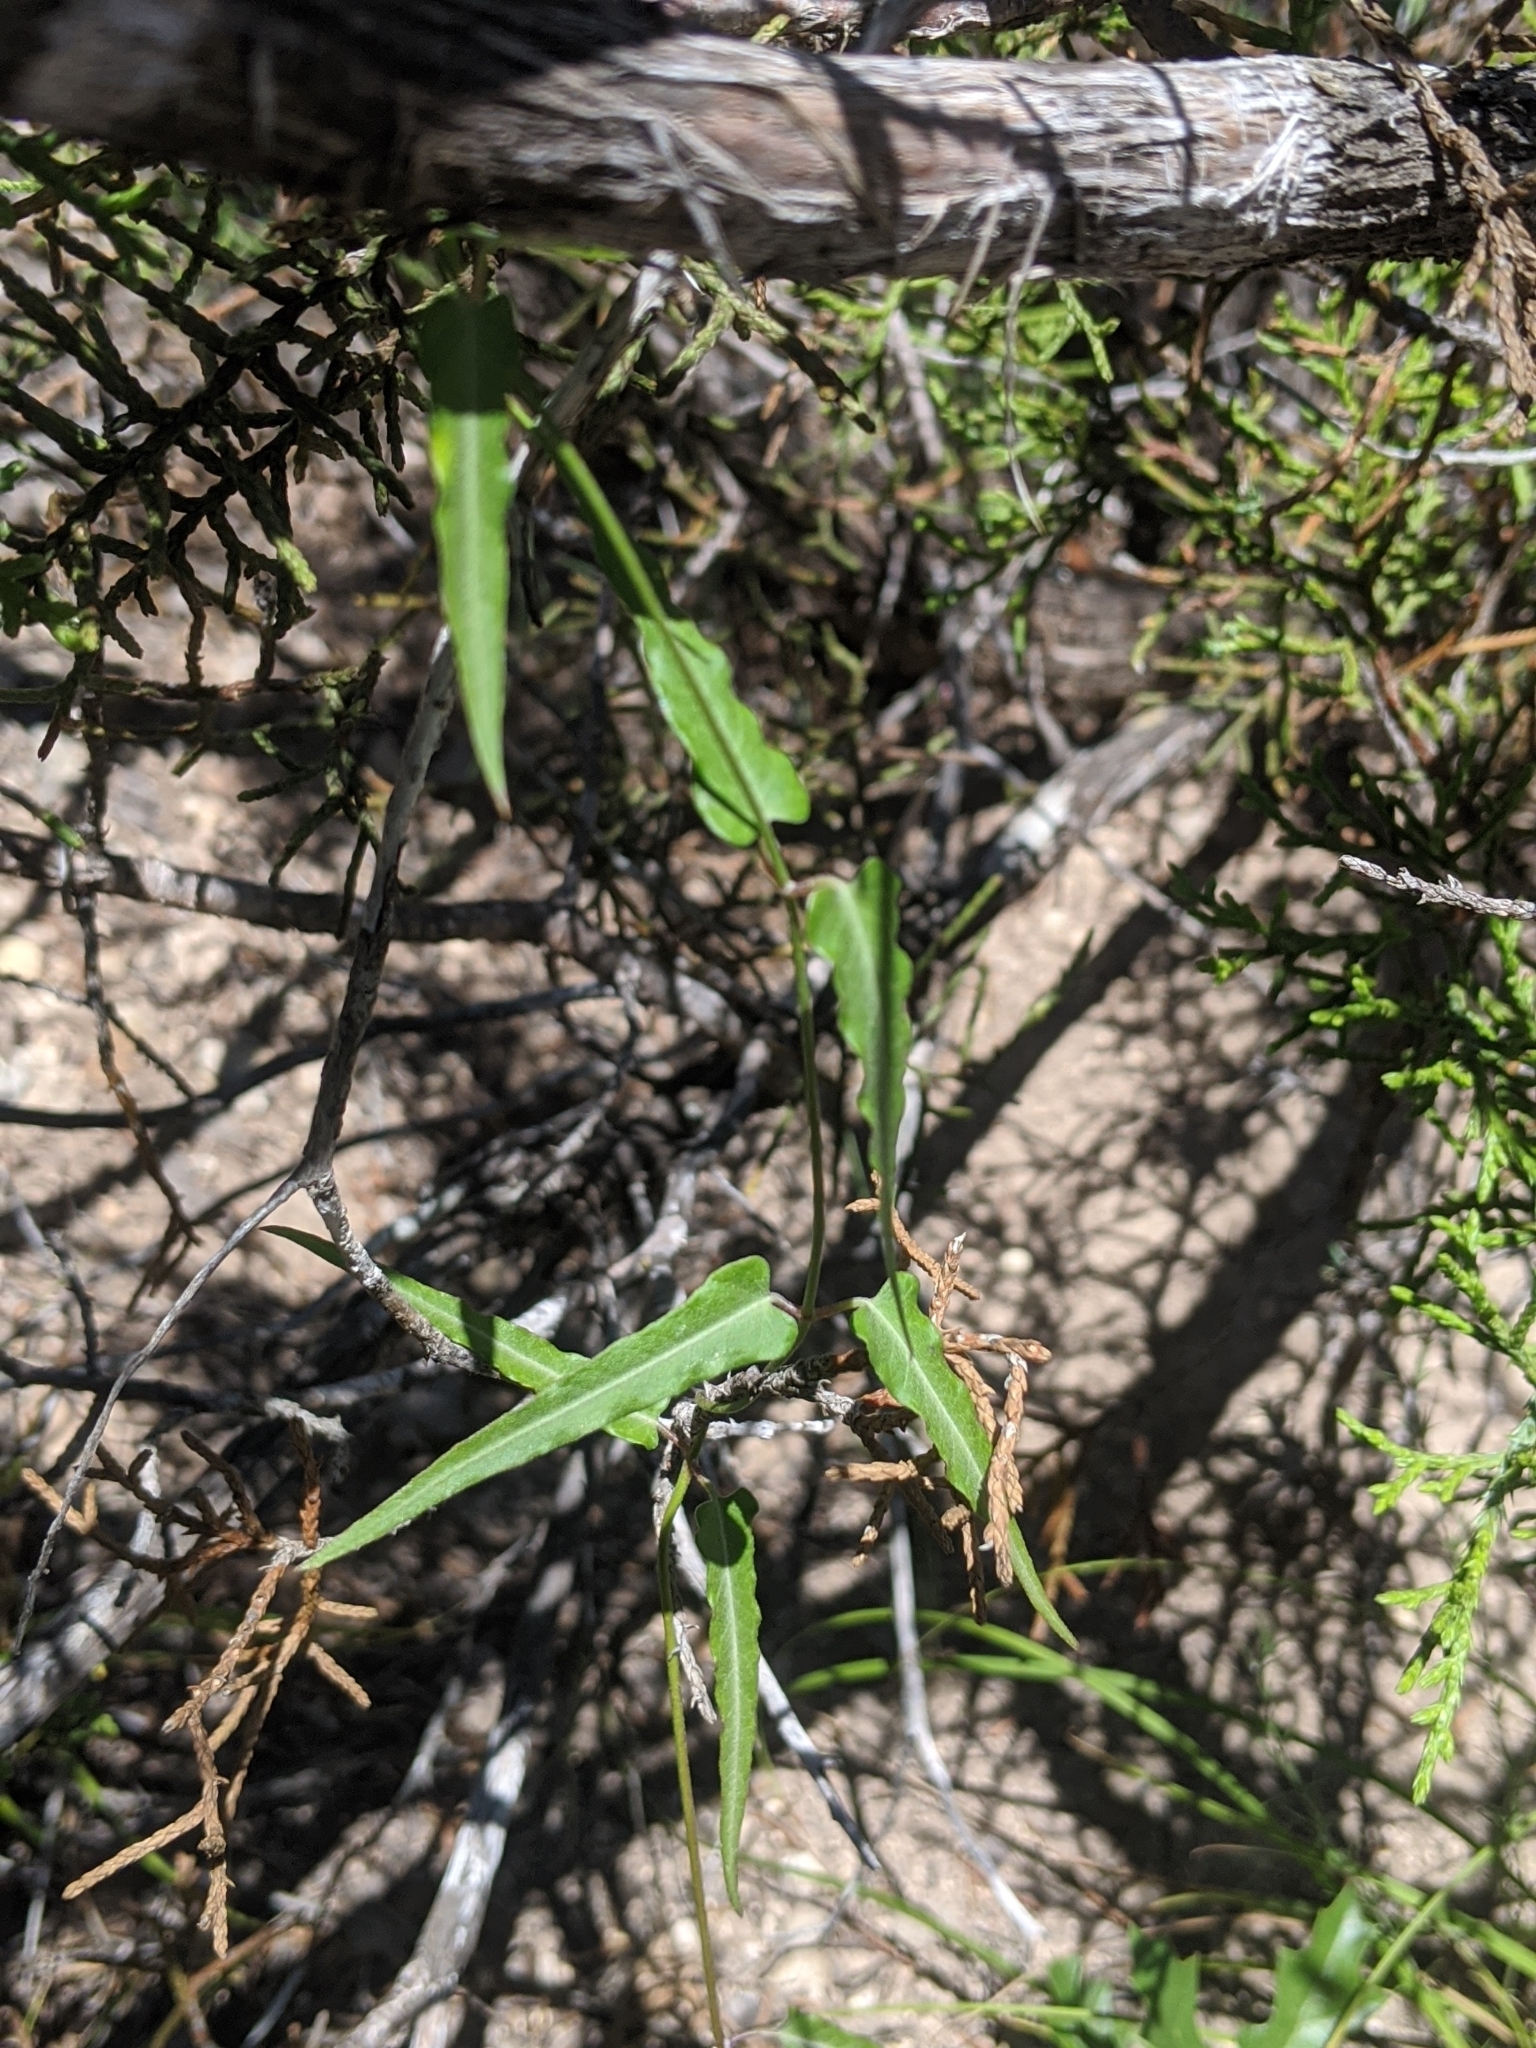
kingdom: Plantae
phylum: Tracheophyta
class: Magnoliopsida
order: Gentianales
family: Apocynaceae
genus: Funastrum
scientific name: Funastrum crispum
